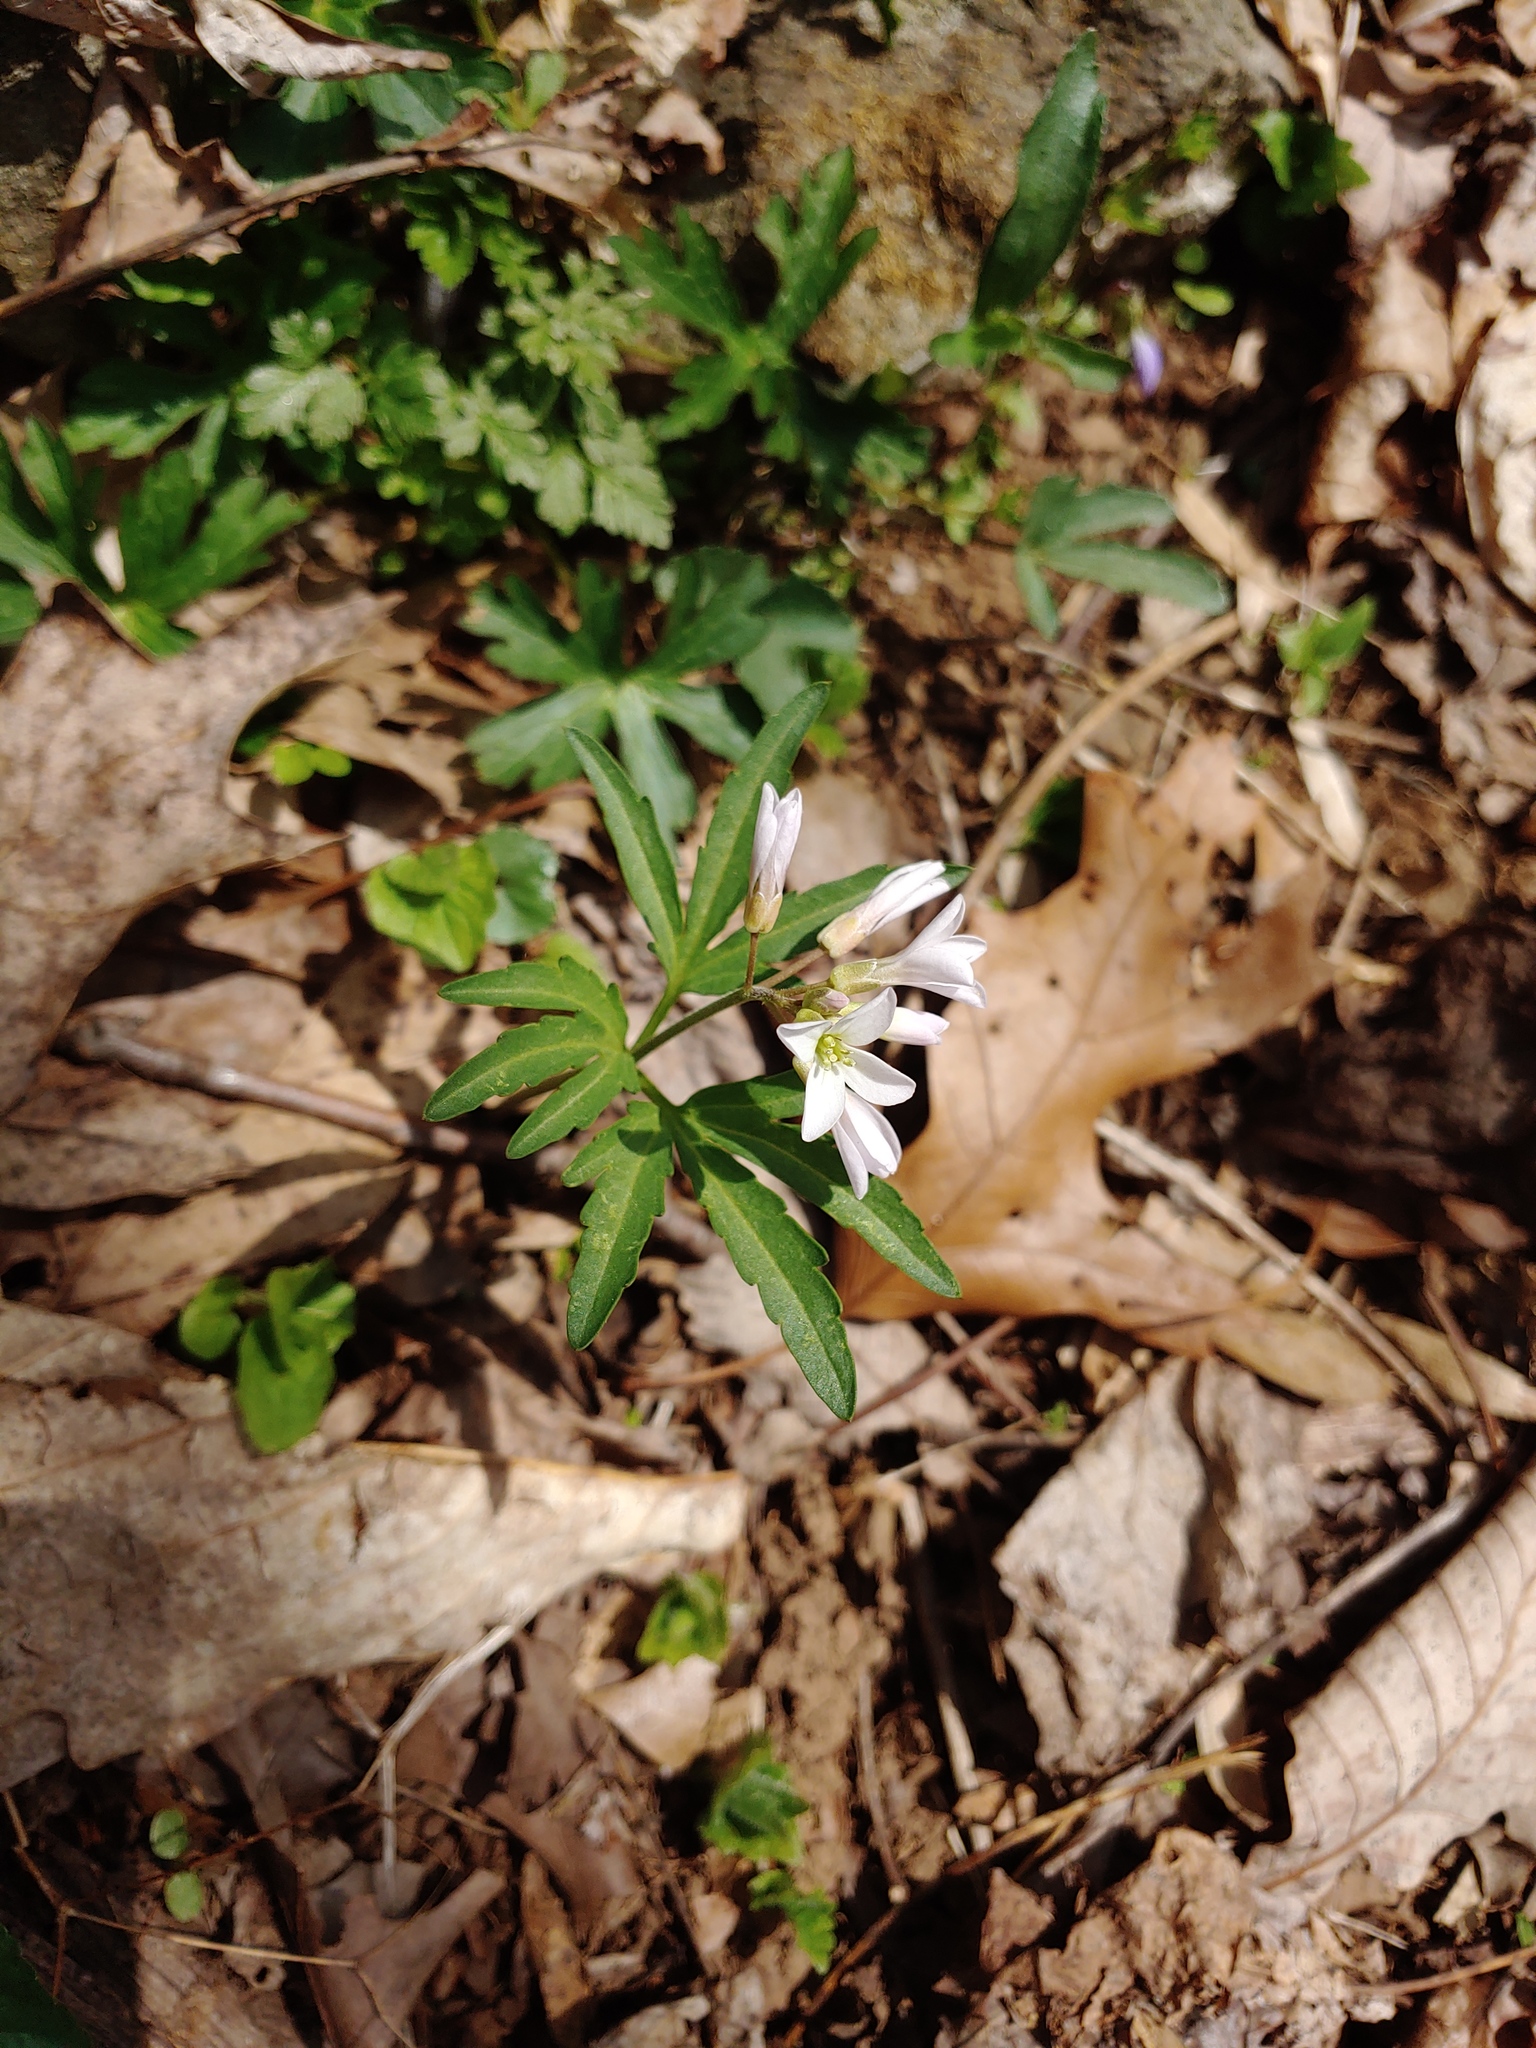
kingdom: Plantae
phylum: Tracheophyta
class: Magnoliopsida
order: Brassicales
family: Brassicaceae
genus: Cardamine
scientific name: Cardamine concatenata
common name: Cut-leaf toothcup
